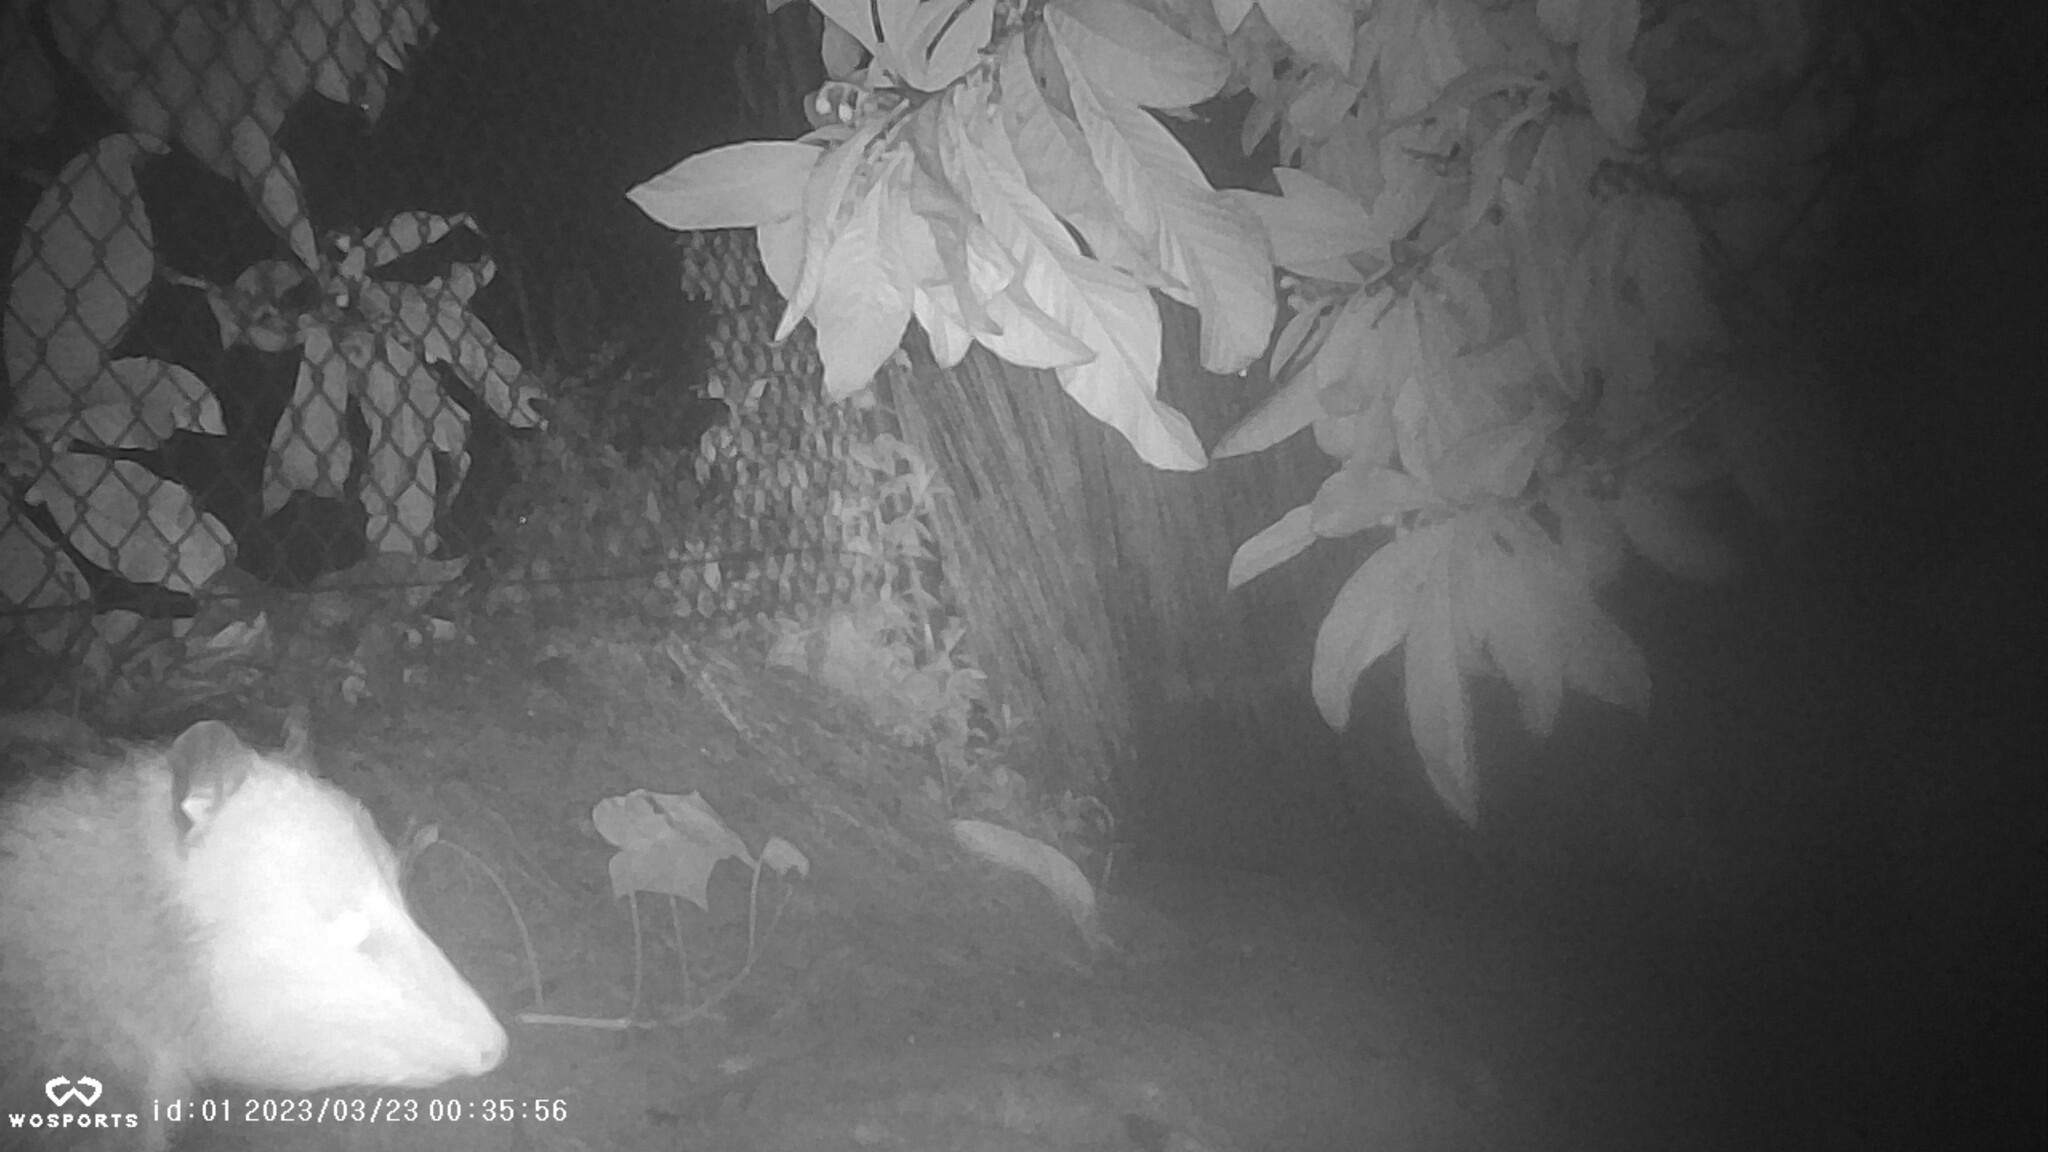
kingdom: Animalia
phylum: Chordata
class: Mammalia
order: Didelphimorphia
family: Didelphidae
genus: Didelphis
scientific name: Didelphis virginiana
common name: Virginia opossum
